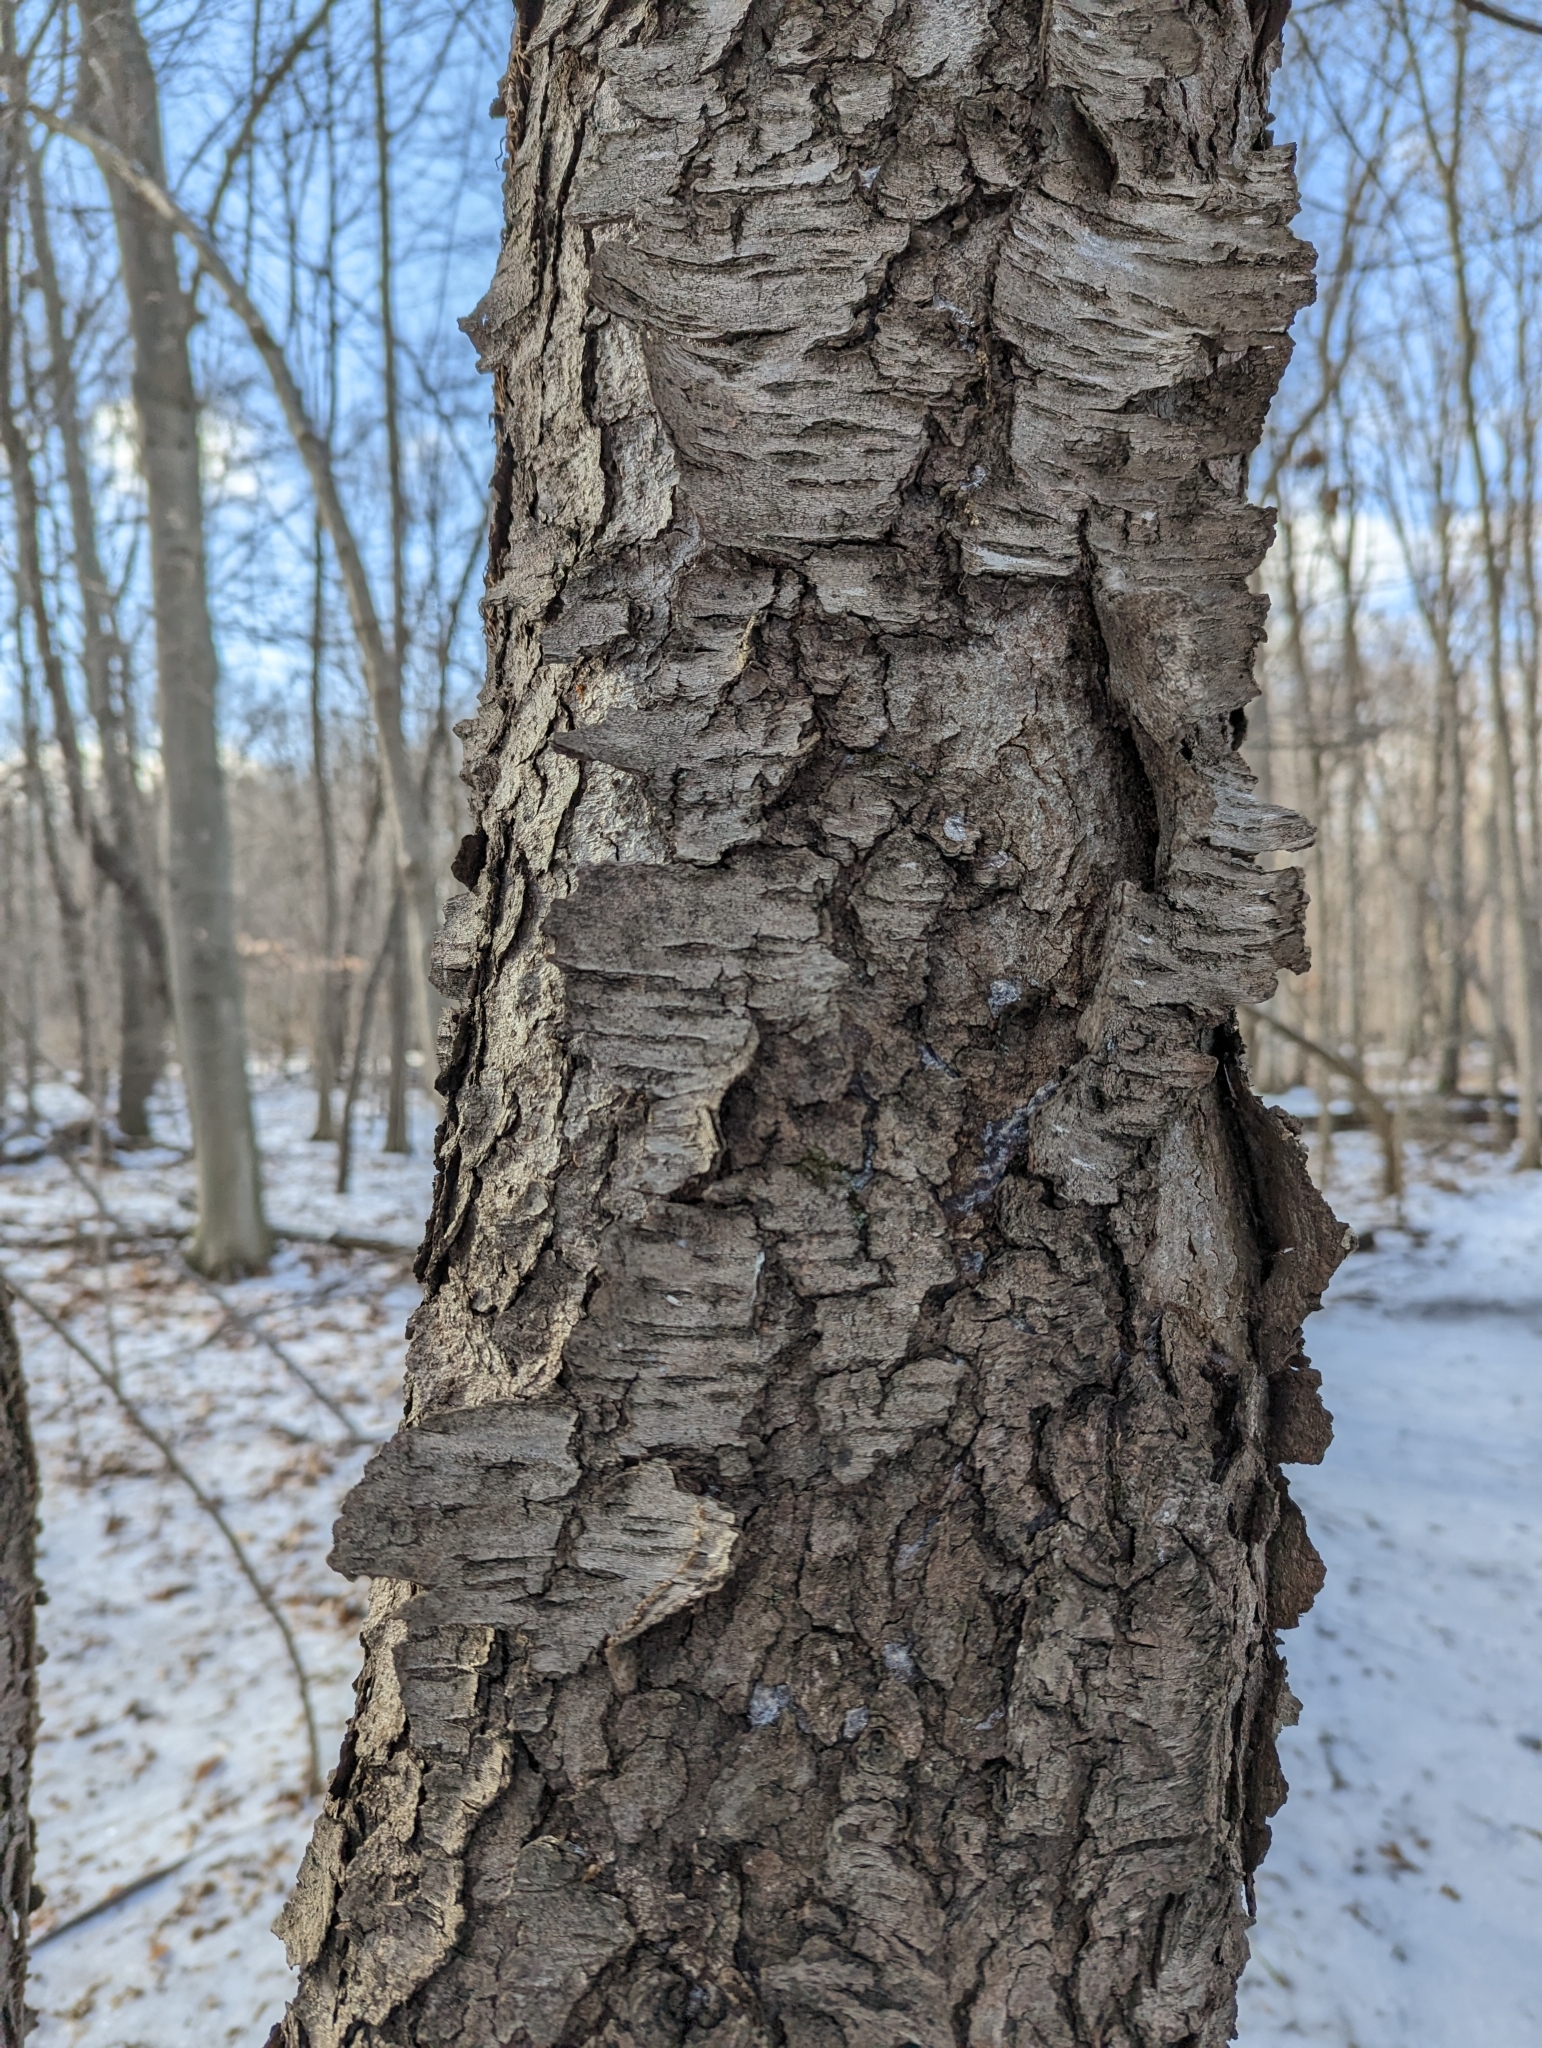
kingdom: Plantae
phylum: Tracheophyta
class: Magnoliopsida
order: Rosales
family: Rosaceae
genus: Prunus
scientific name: Prunus serotina
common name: Black cherry
